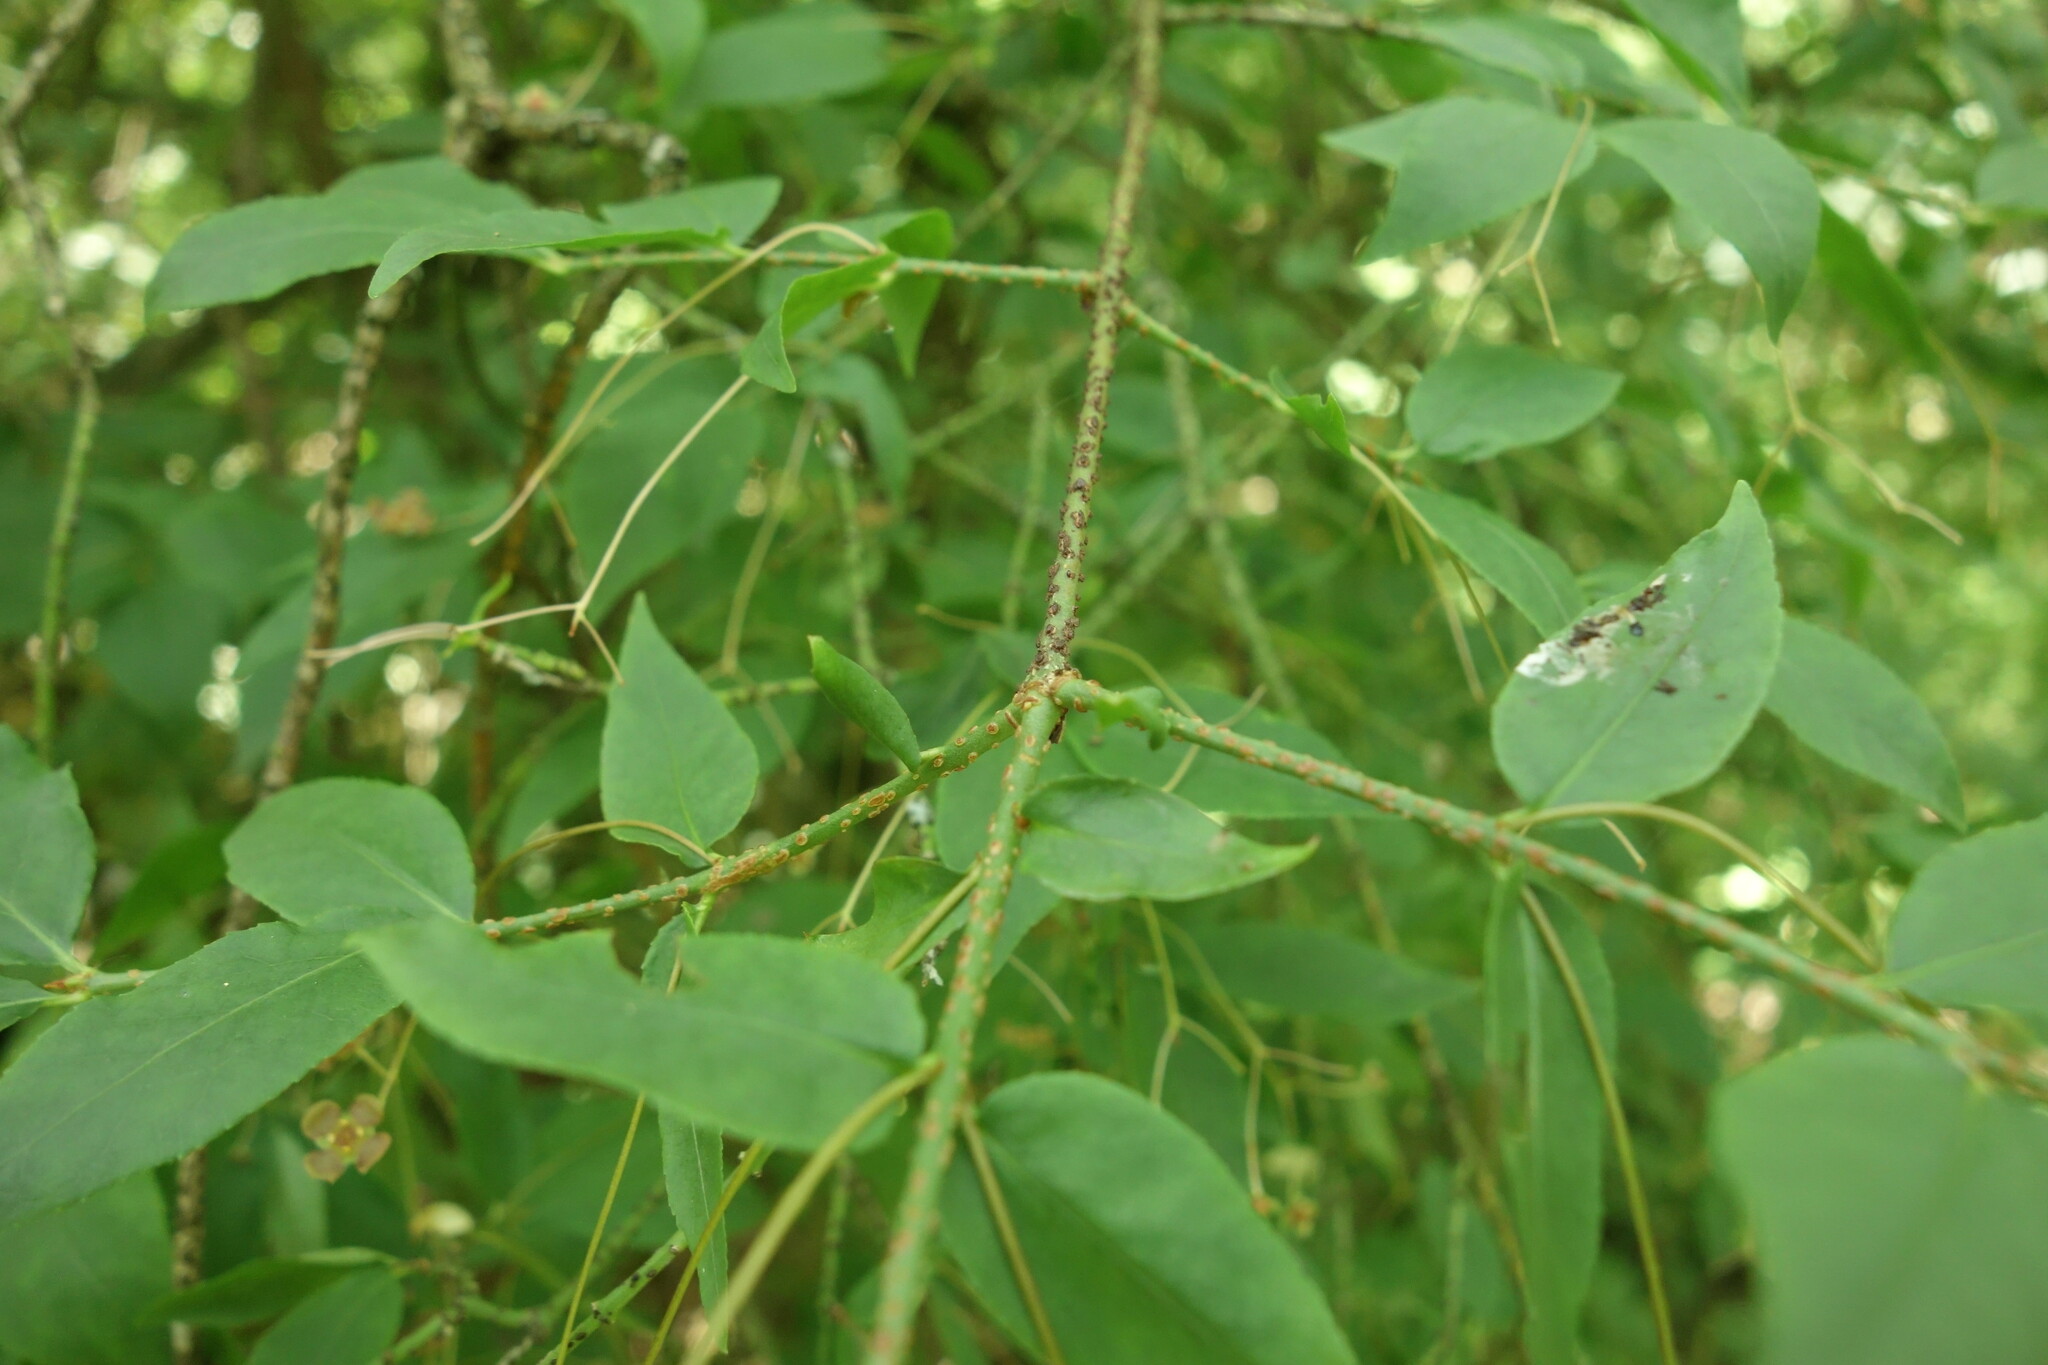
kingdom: Plantae
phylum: Tracheophyta
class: Magnoliopsida
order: Celastrales
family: Celastraceae
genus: Euonymus
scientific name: Euonymus verrucosus
